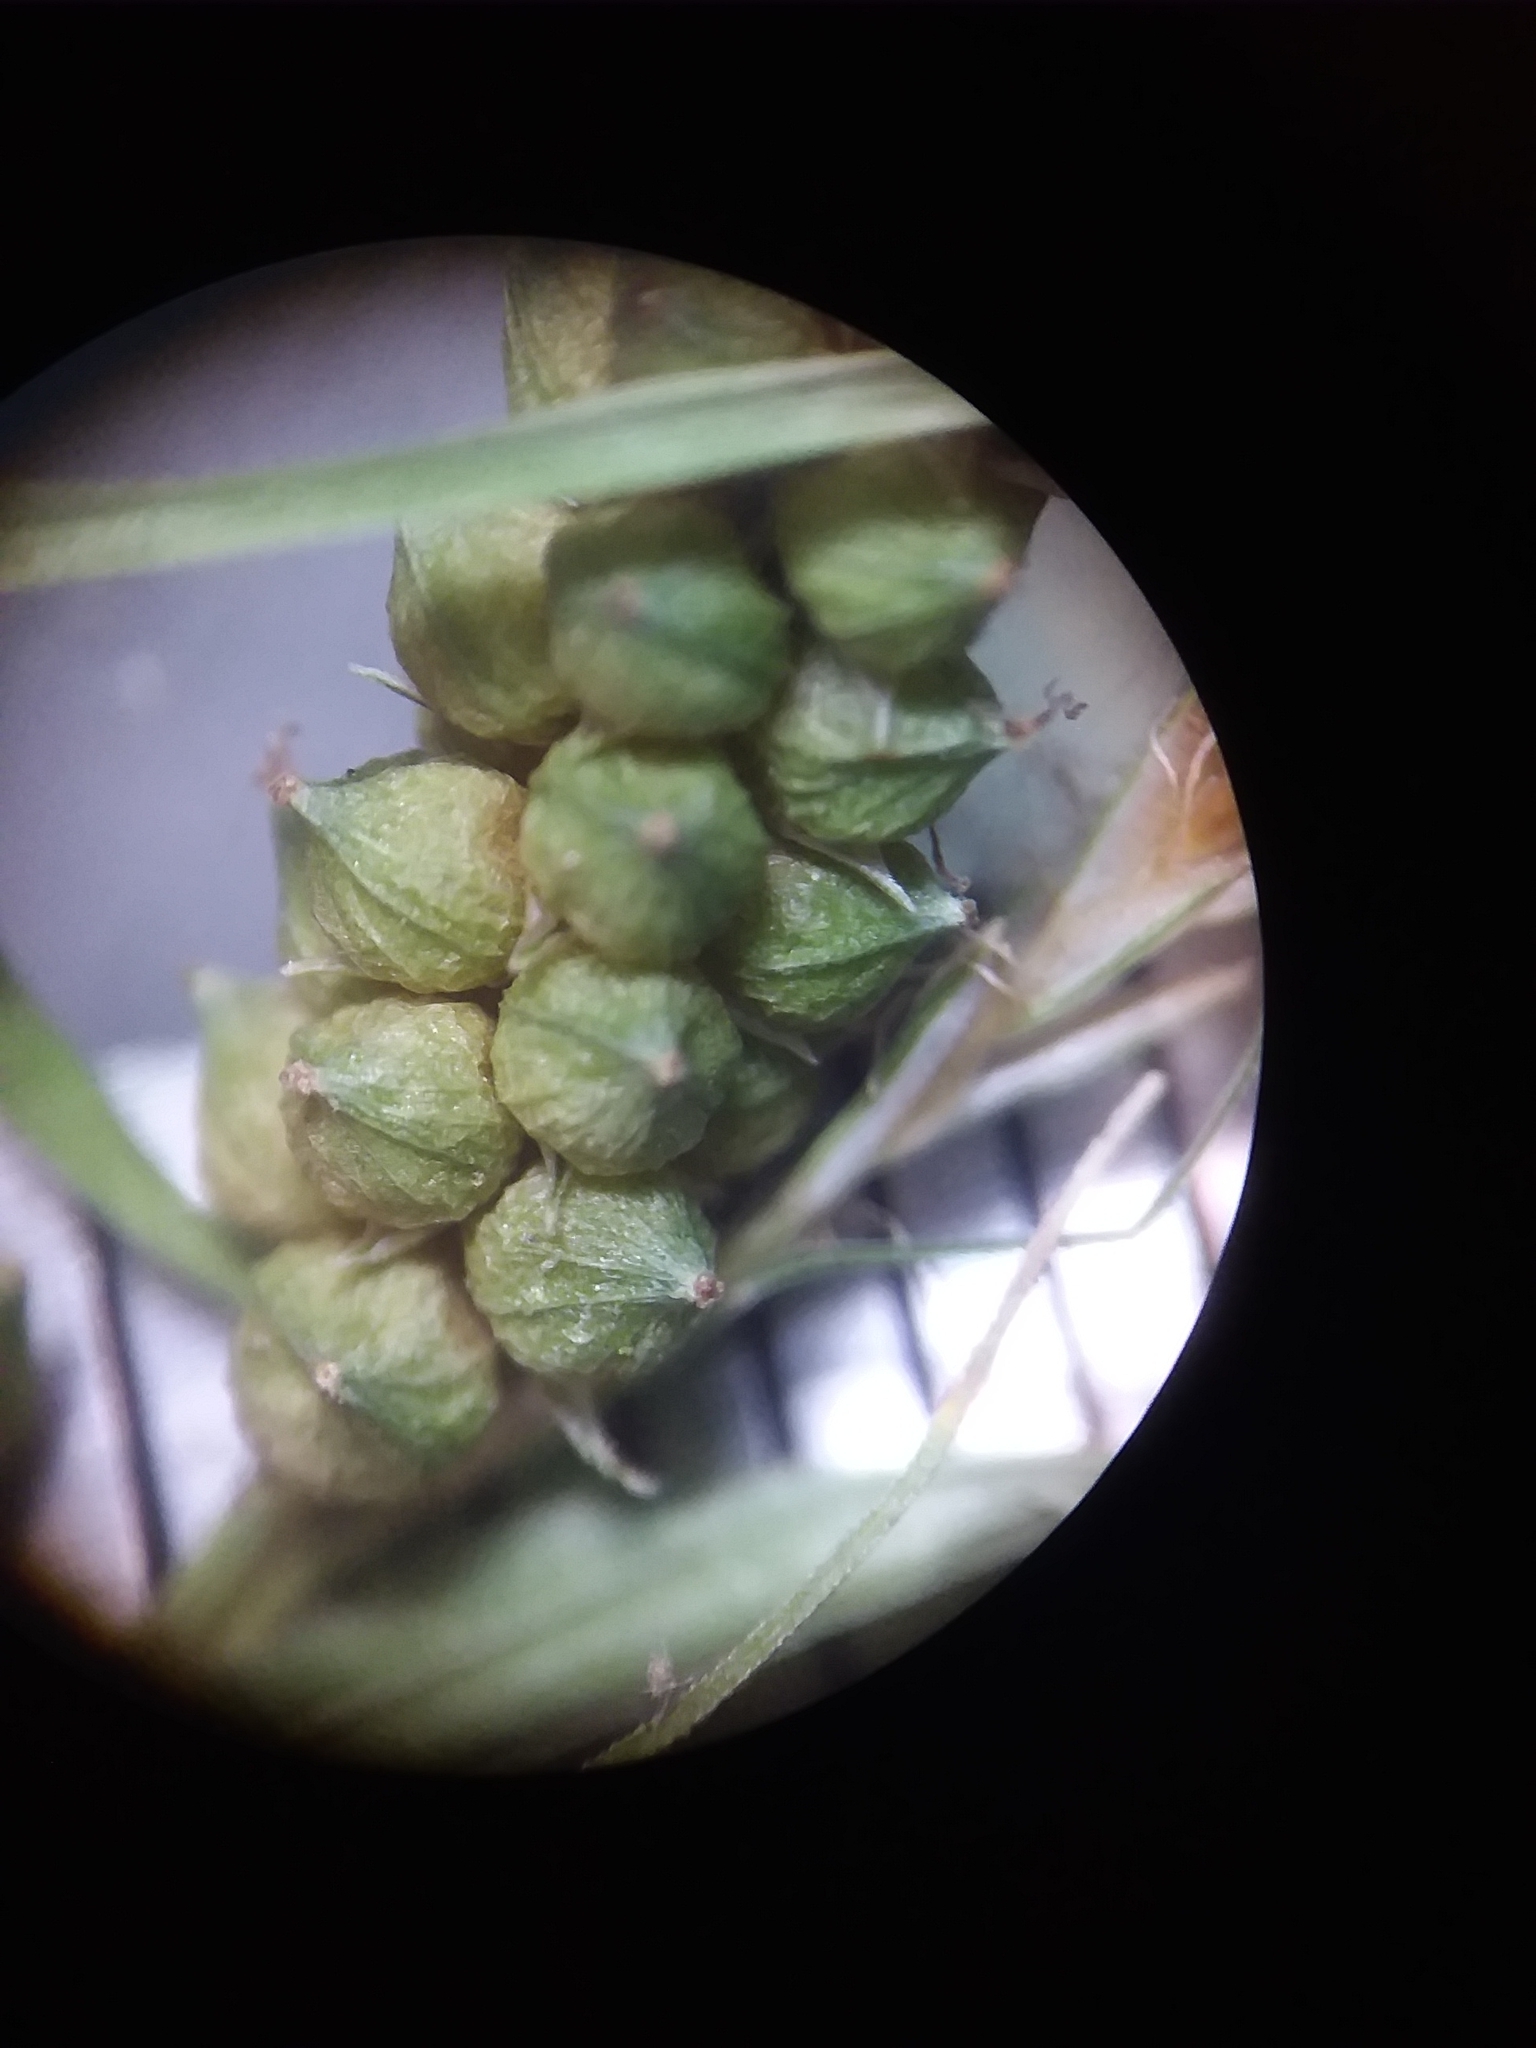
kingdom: Plantae
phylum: Tracheophyta
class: Liliopsida
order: Poales
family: Cyperaceae
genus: Carex
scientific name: Carex caroliniana
